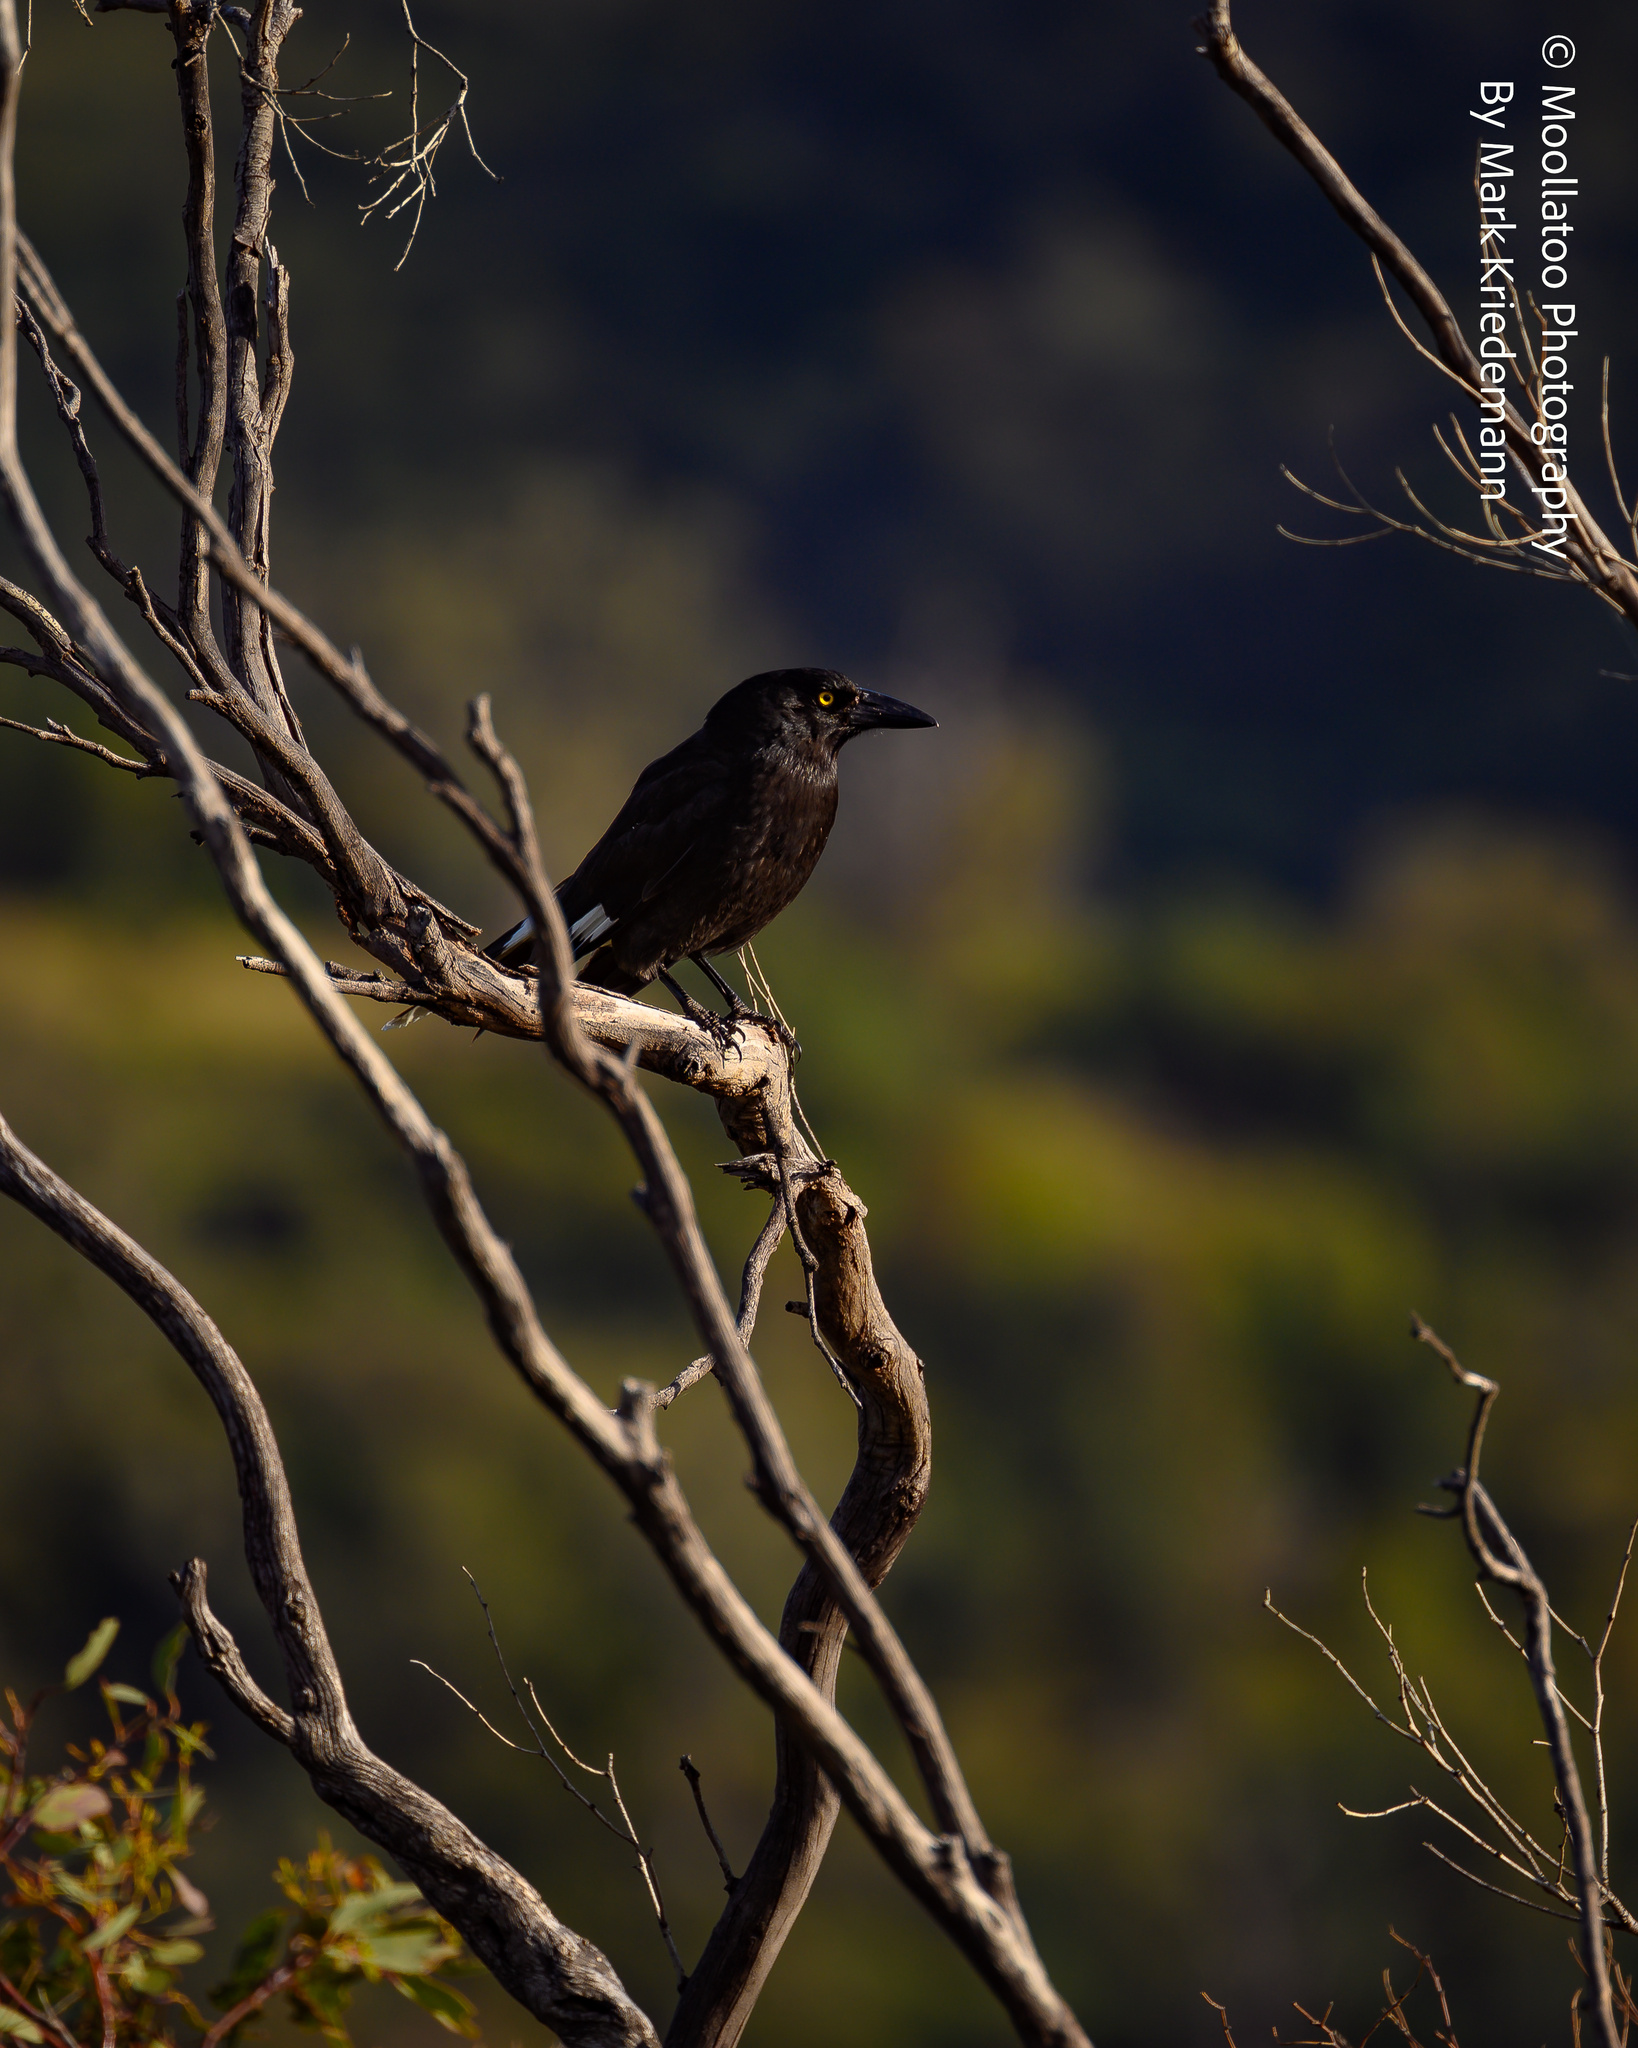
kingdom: Animalia
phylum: Chordata
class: Aves
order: Passeriformes
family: Cracticidae
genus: Strepera
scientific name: Strepera graculina
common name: Pied currawong
